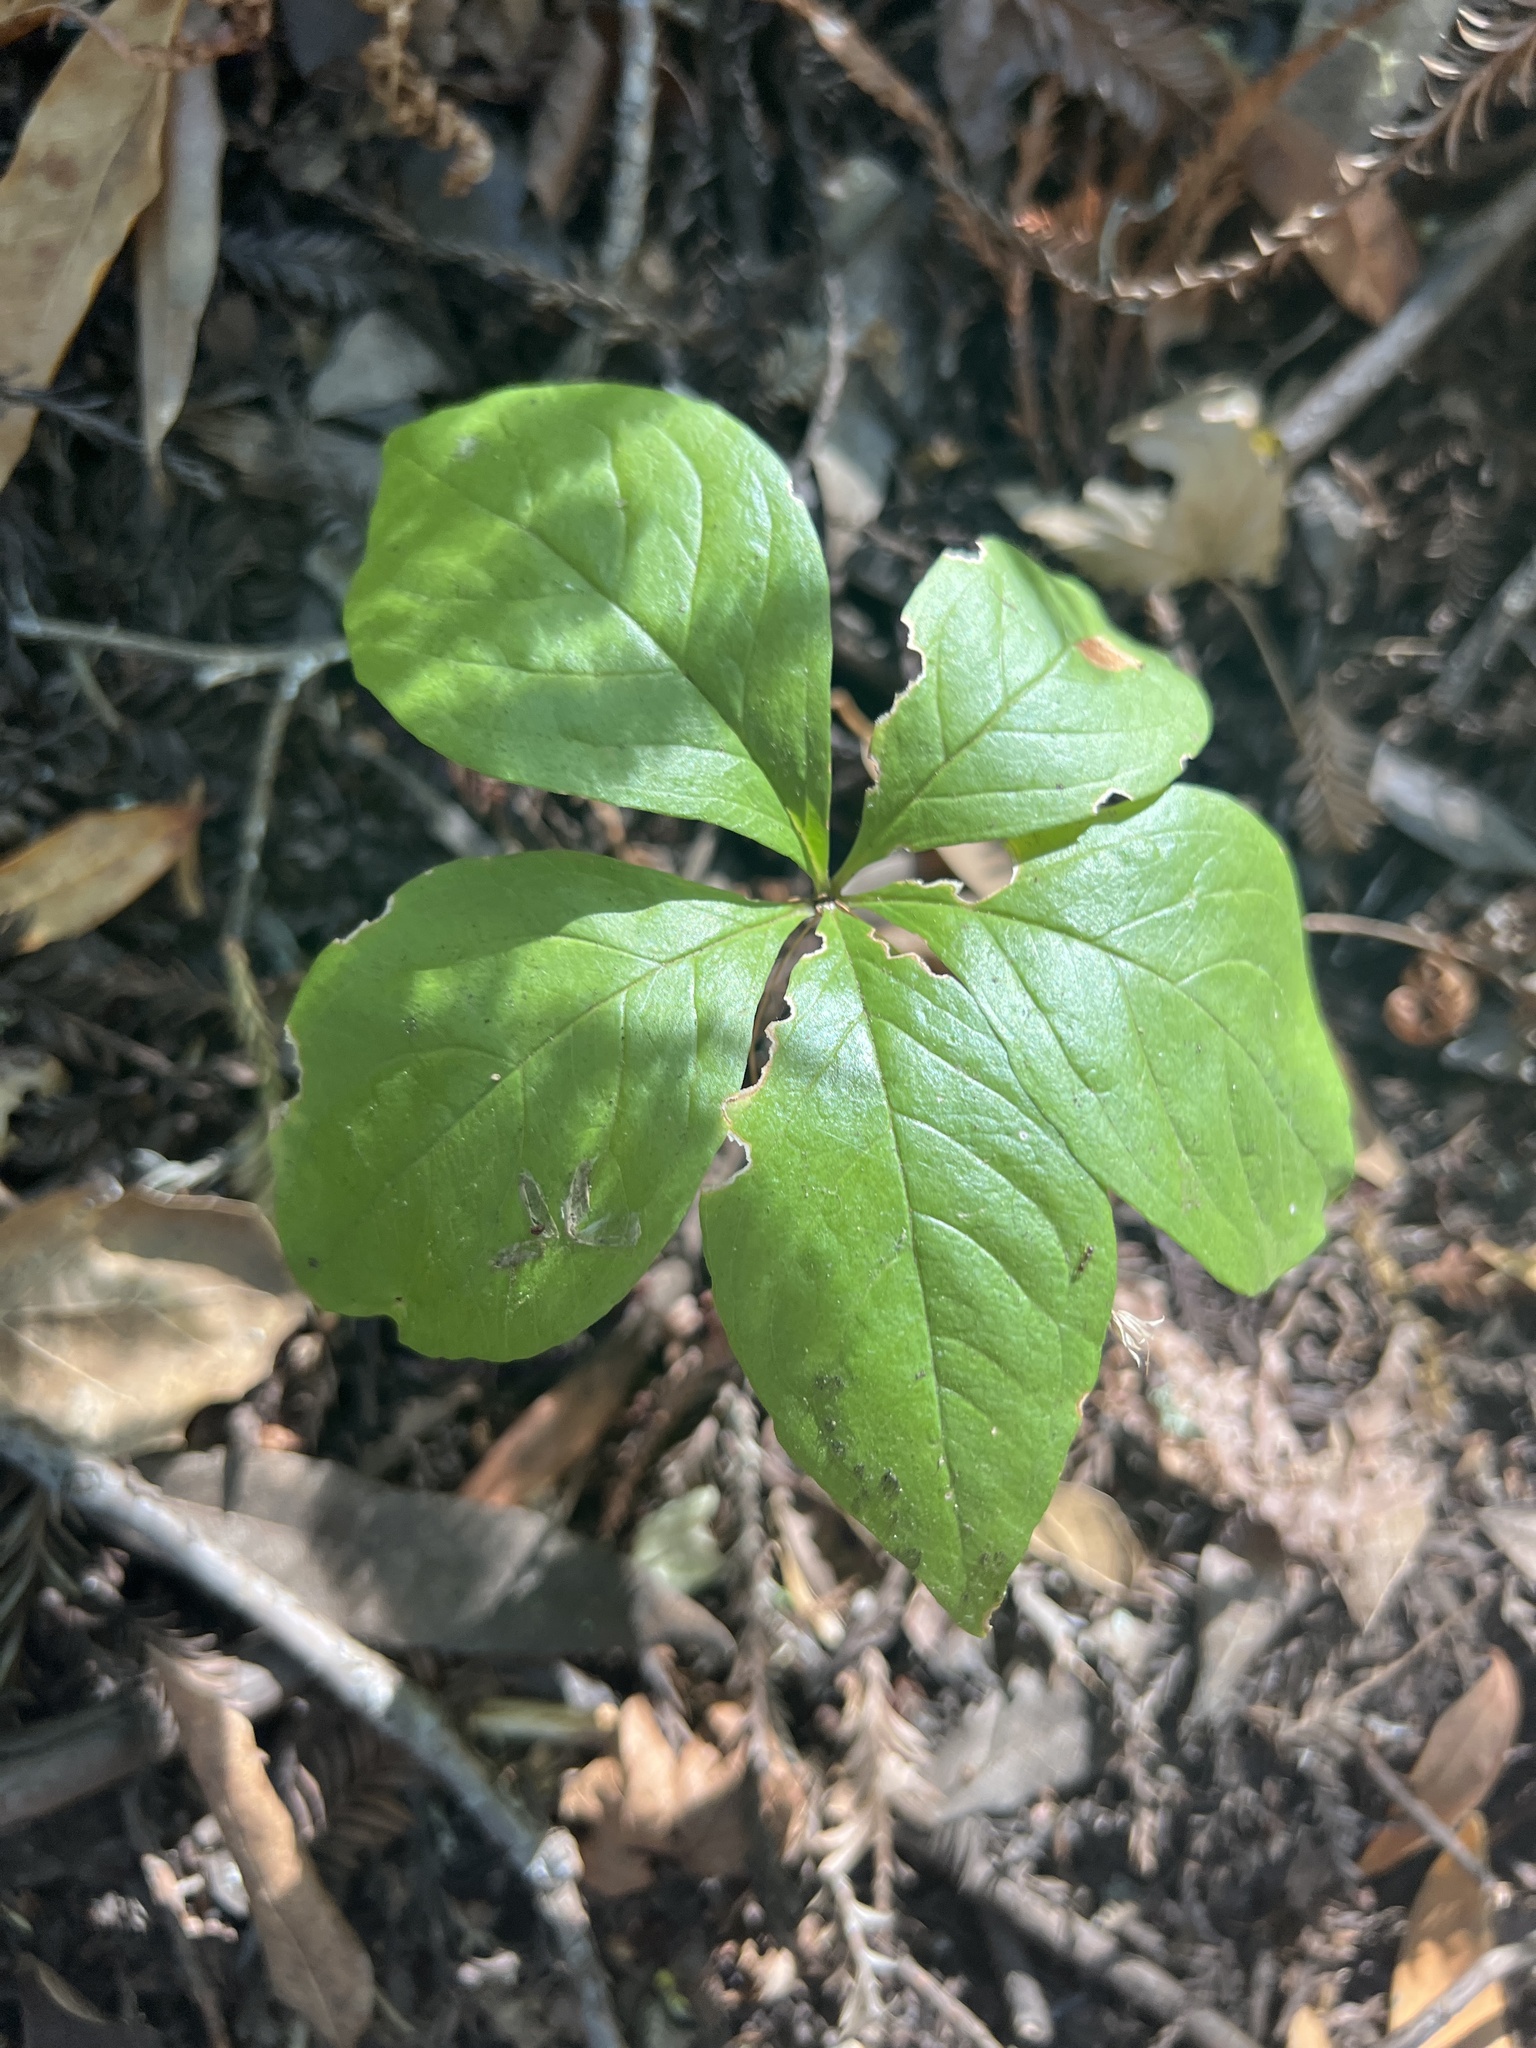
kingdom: Plantae
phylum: Tracheophyta
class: Magnoliopsida
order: Ericales
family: Primulaceae
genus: Lysimachia
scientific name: Lysimachia latifolia
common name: Pacific starflower
